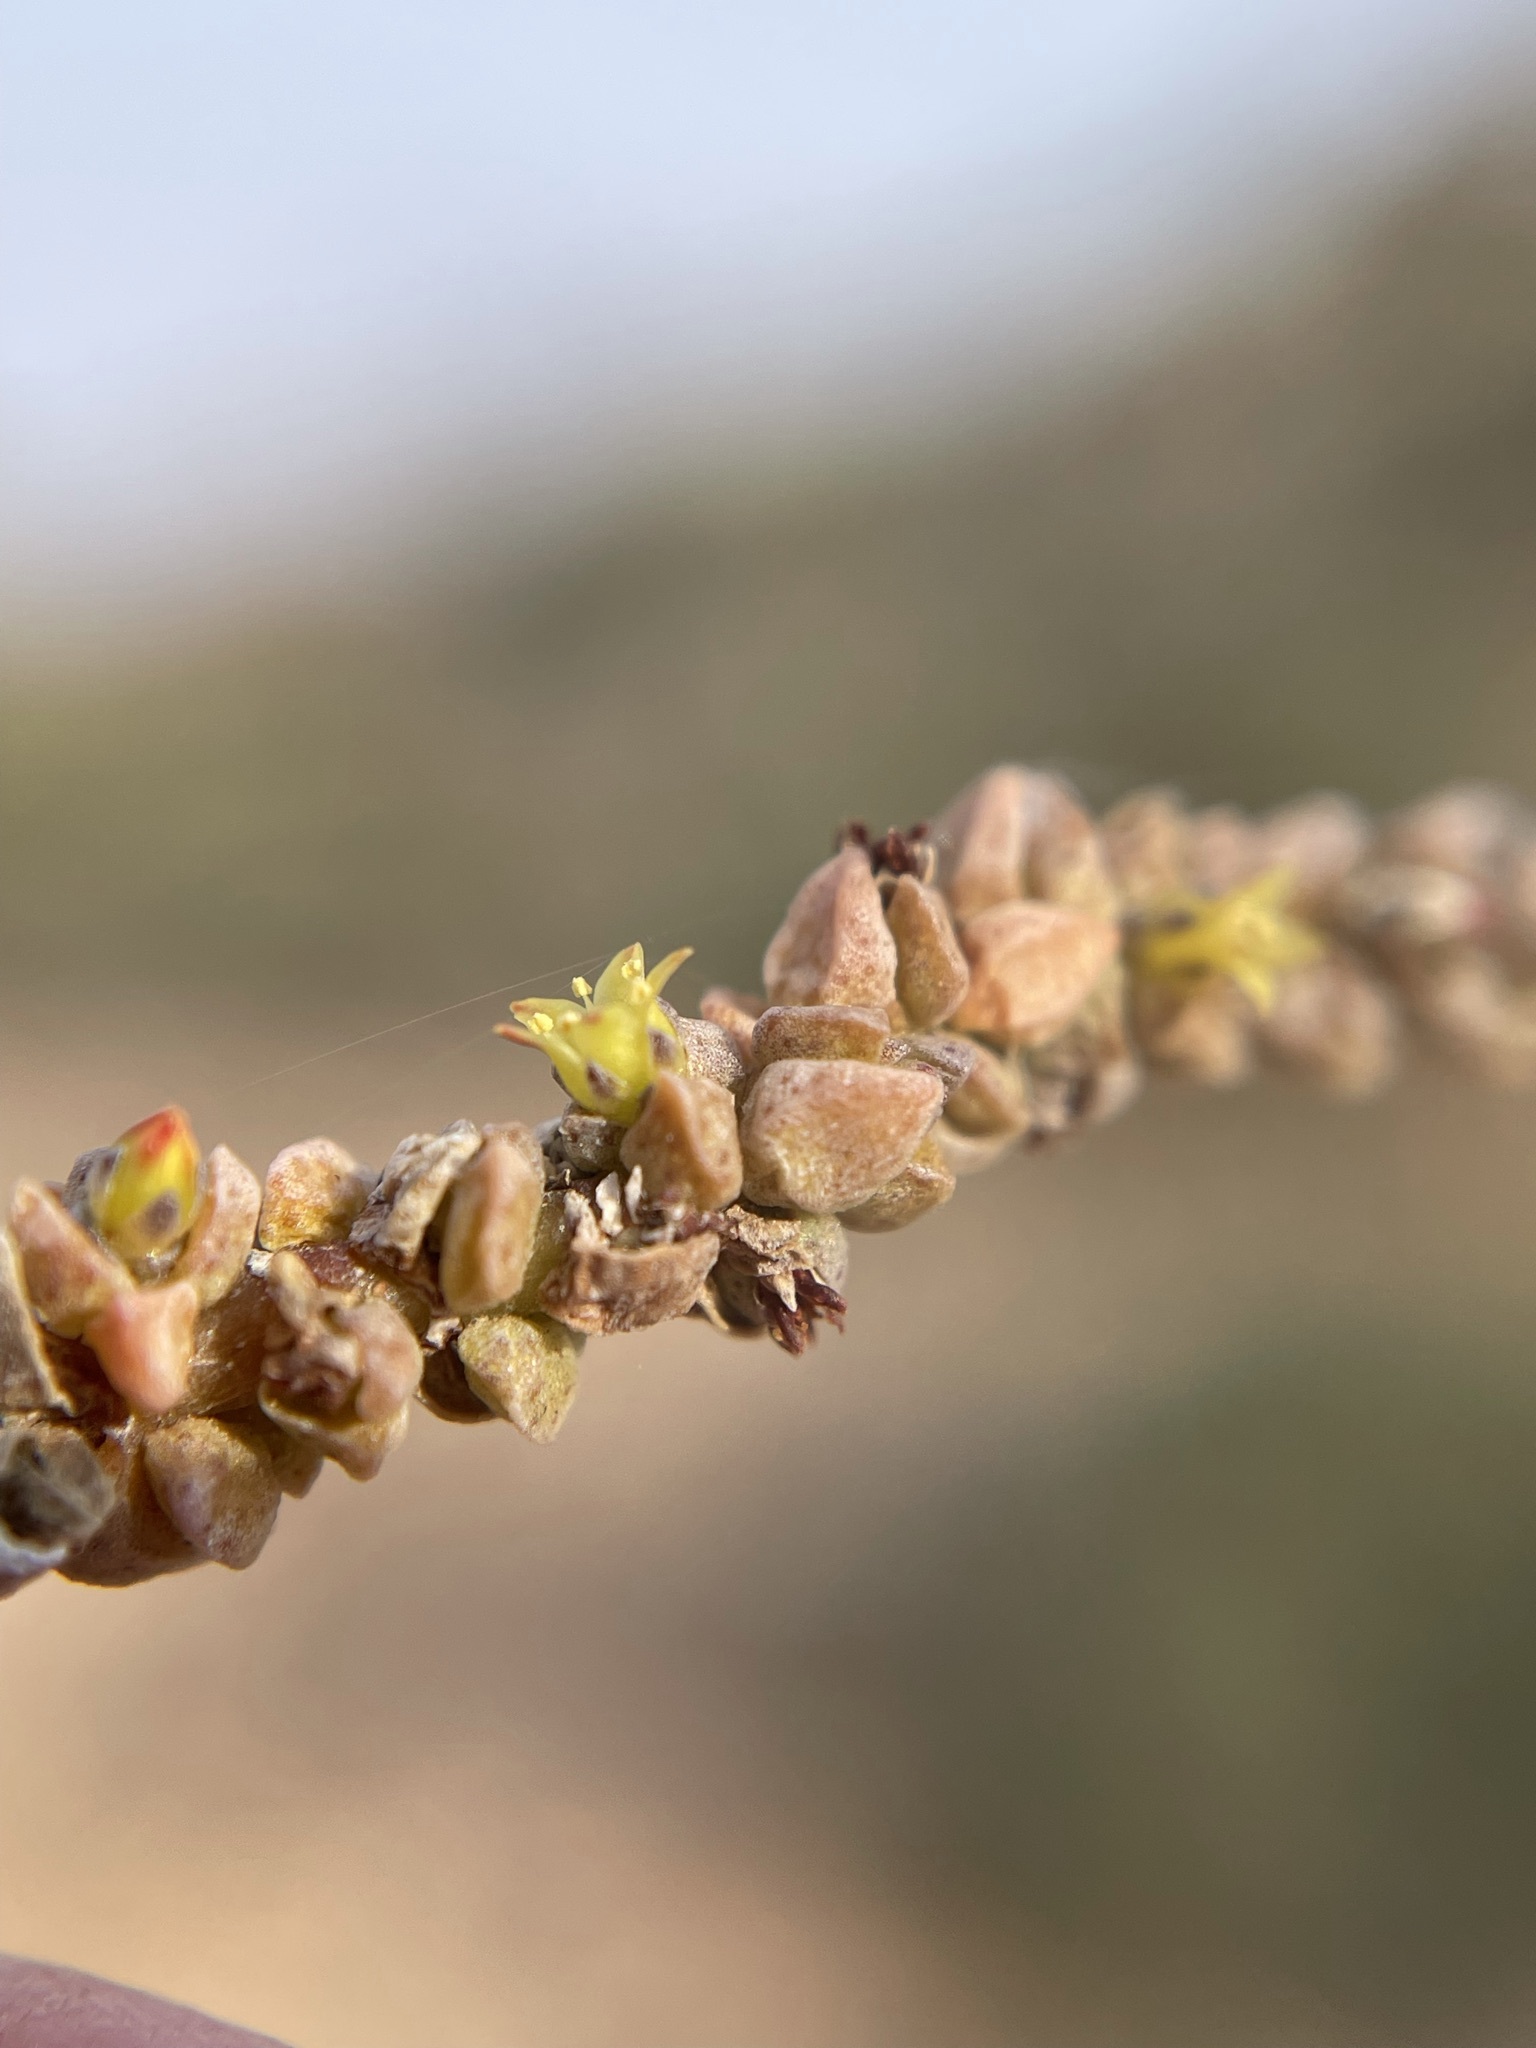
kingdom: Plantae
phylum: Tracheophyta
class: Magnoliopsida
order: Saxifragales
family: Crassulaceae
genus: Crassula
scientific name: Crassula muscosa
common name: Toy-cypress
